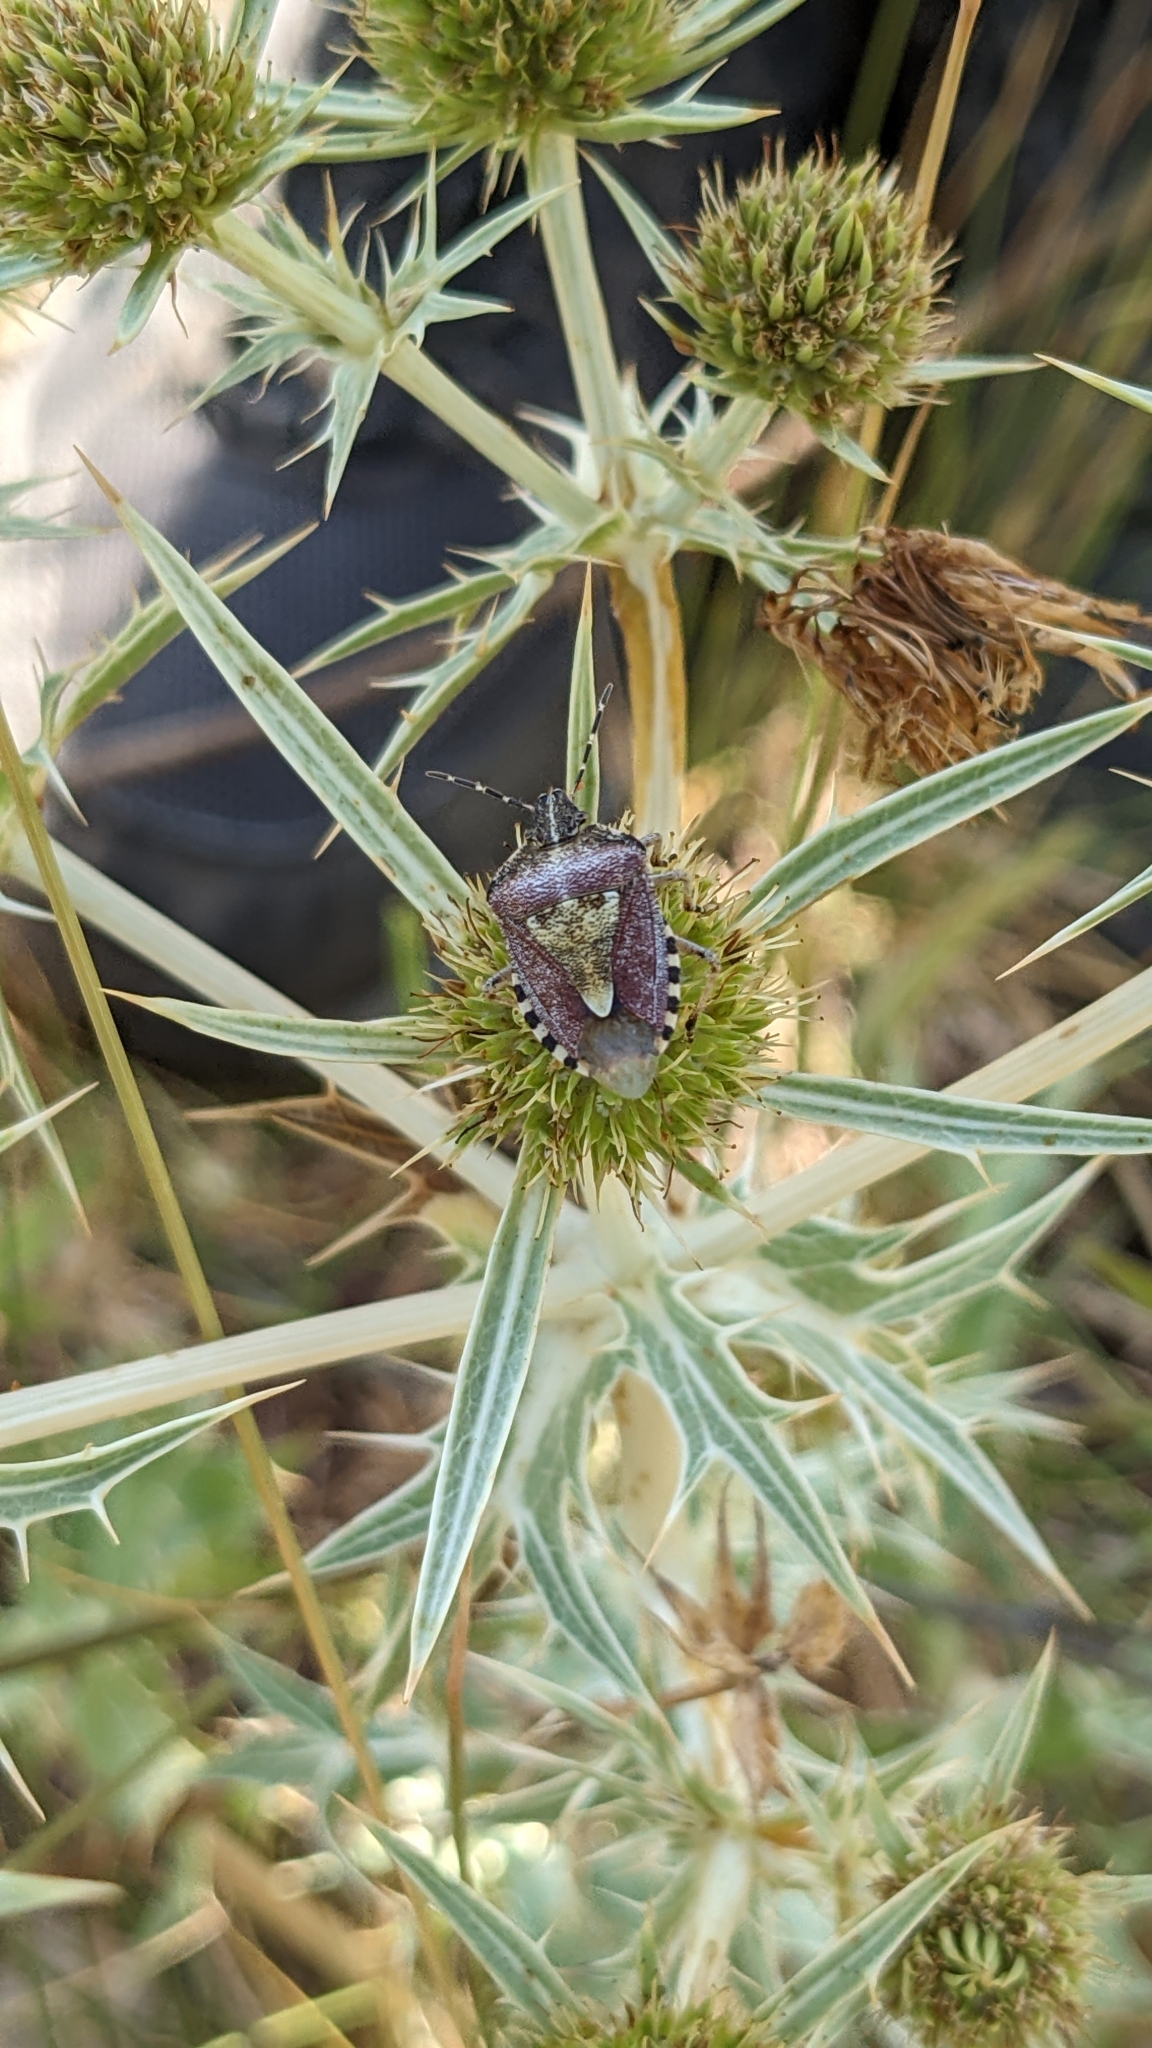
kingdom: Animalia
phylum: Arthropoda
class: Insecta
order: Hemiptera
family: Pentatomidae
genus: Dolycoris
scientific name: Dolycoris baccarum
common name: Sloe bug
